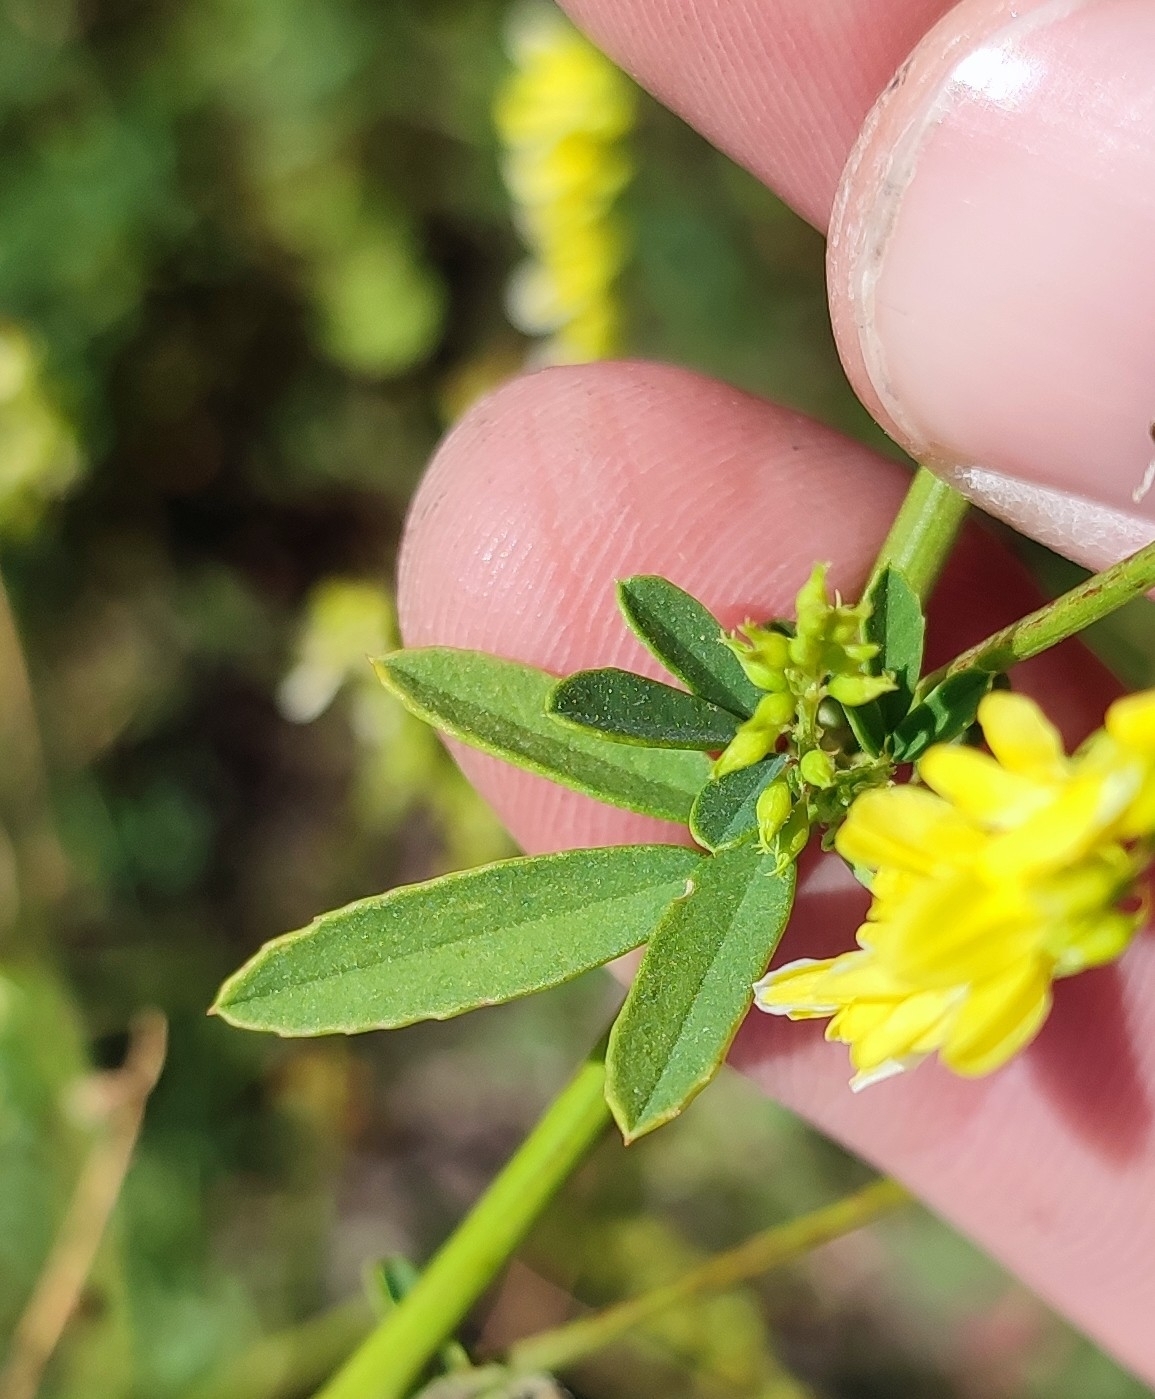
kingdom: Plantae
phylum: Tracheophyta
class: Magnoliopsida
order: Fabales
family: Fabaceae
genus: Melilotus
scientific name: Melilotus officinalis
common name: Sweetclover
